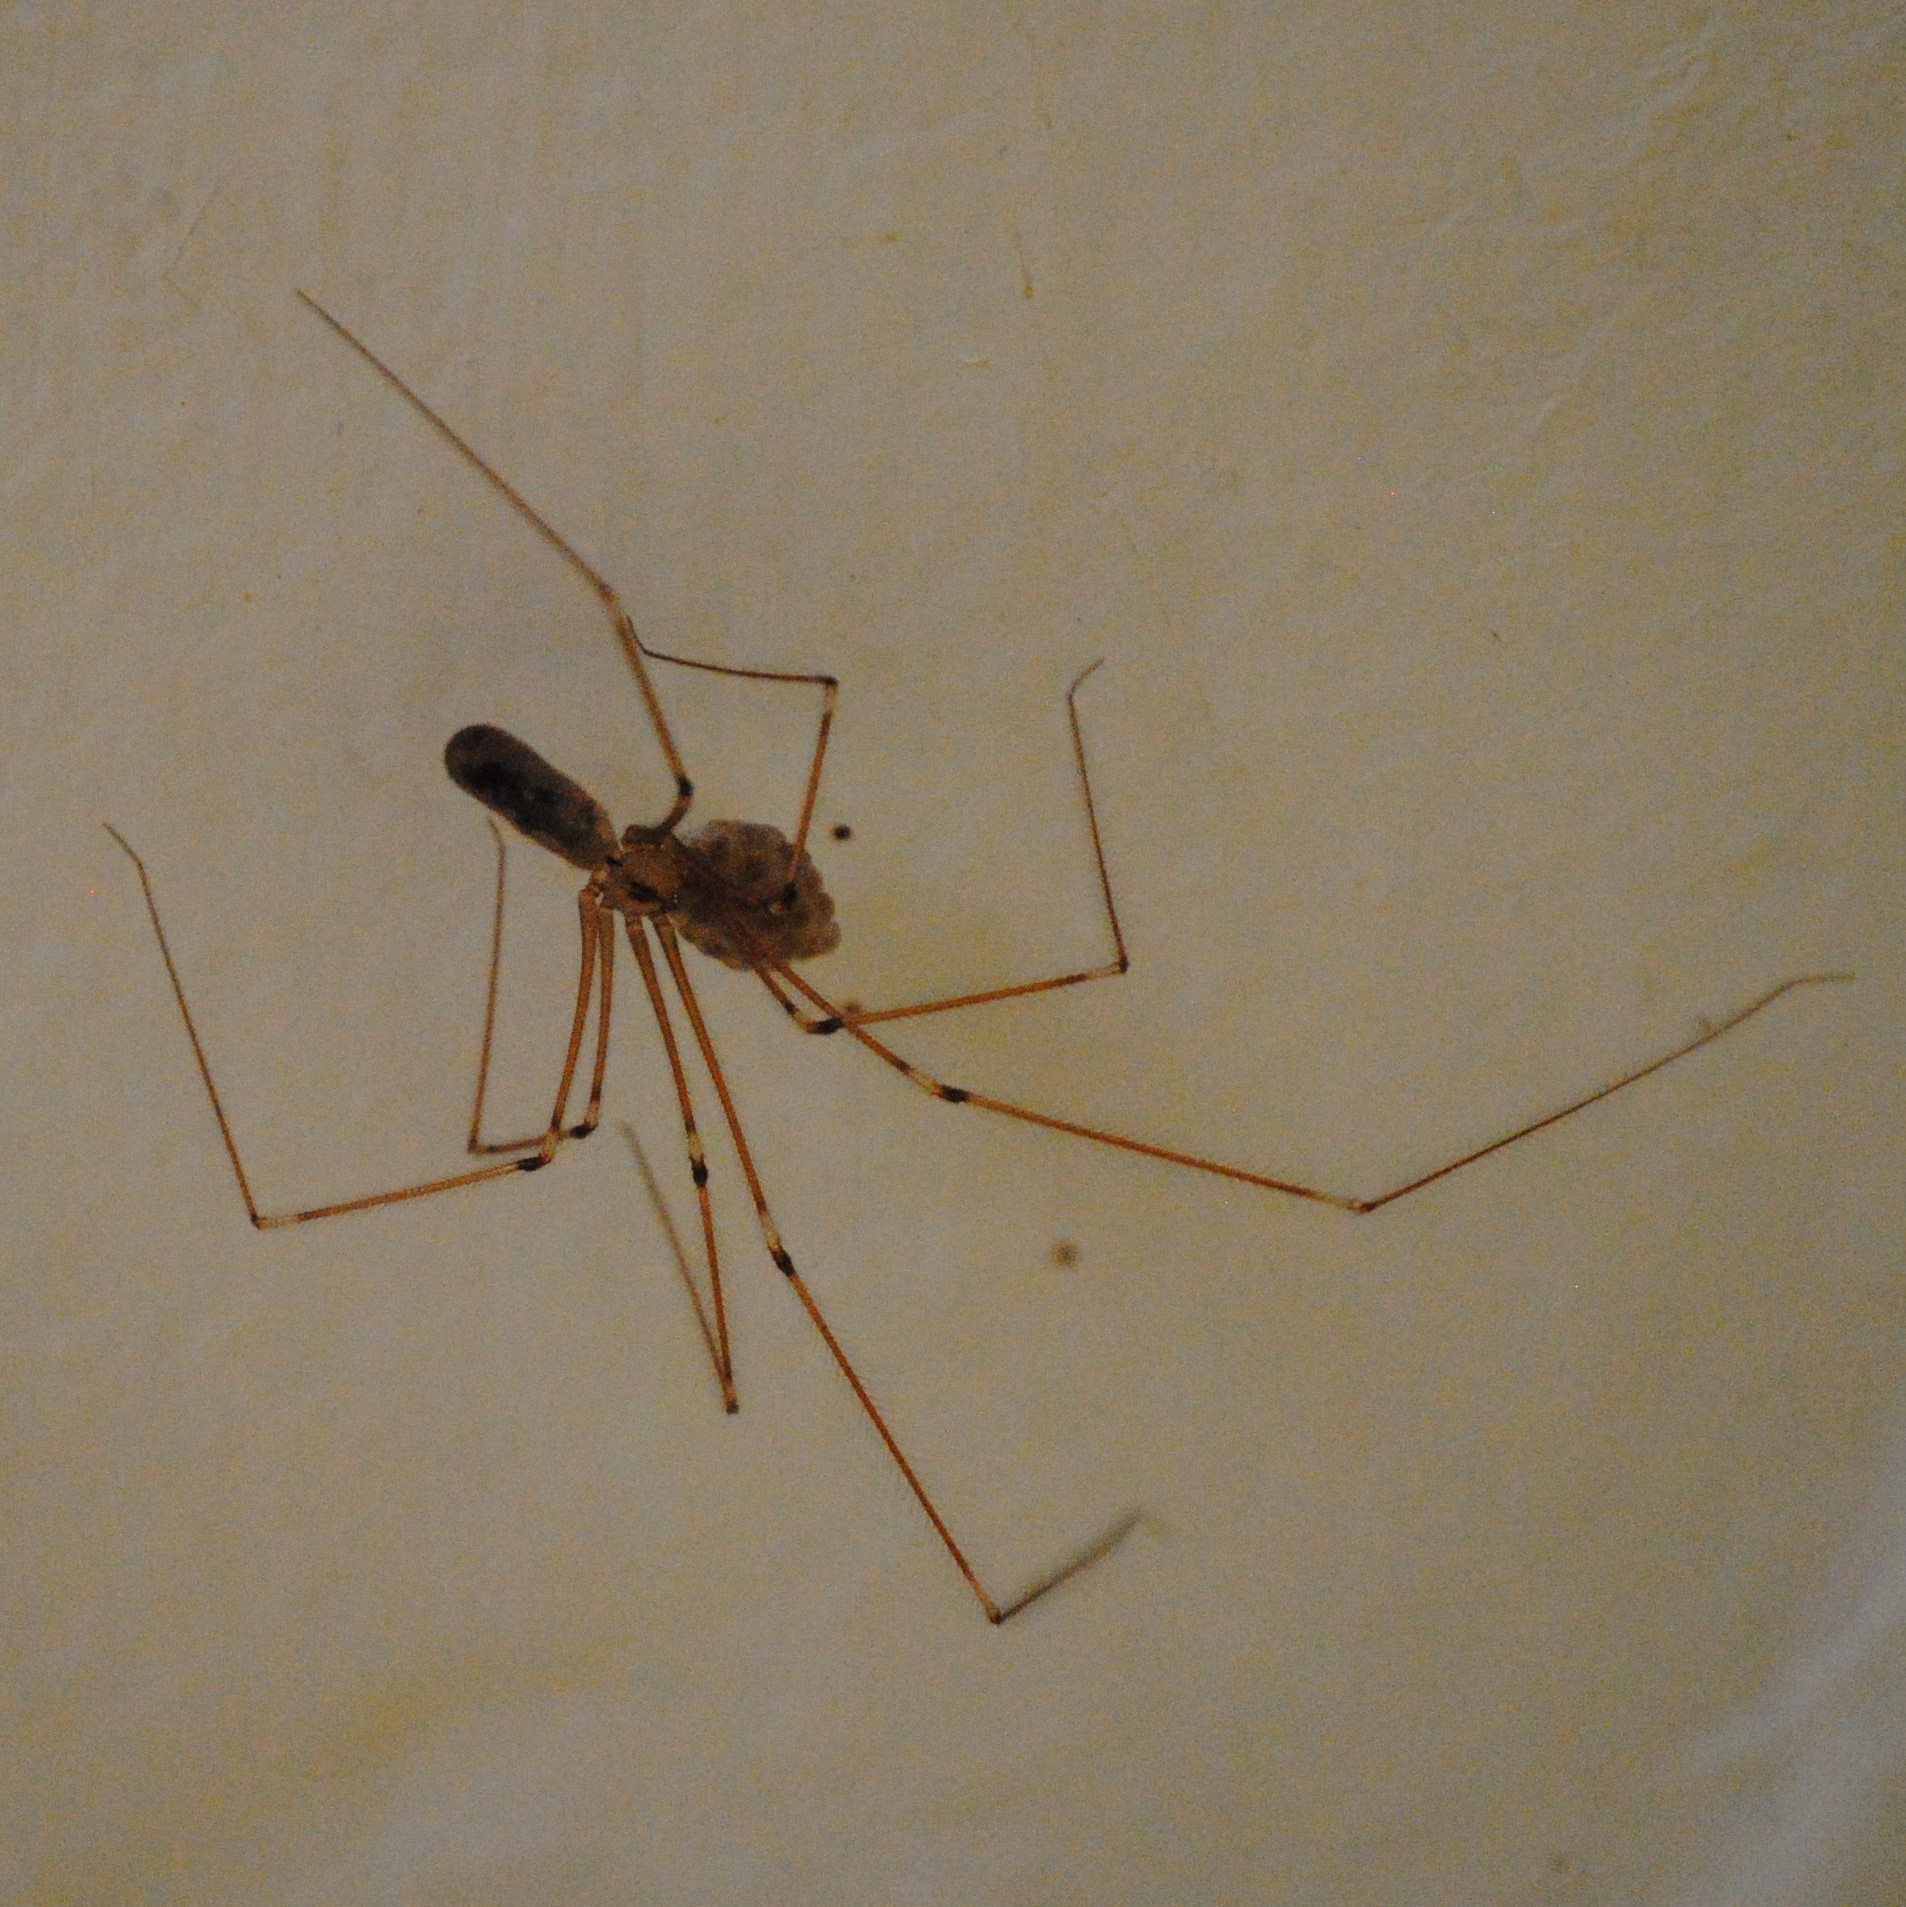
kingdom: Animalia
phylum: Arthropoda
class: Arachnida
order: Araneae
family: Pholcidae
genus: Pholcus
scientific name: Pholcus phalangioides
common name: Longbodied cellar spider
